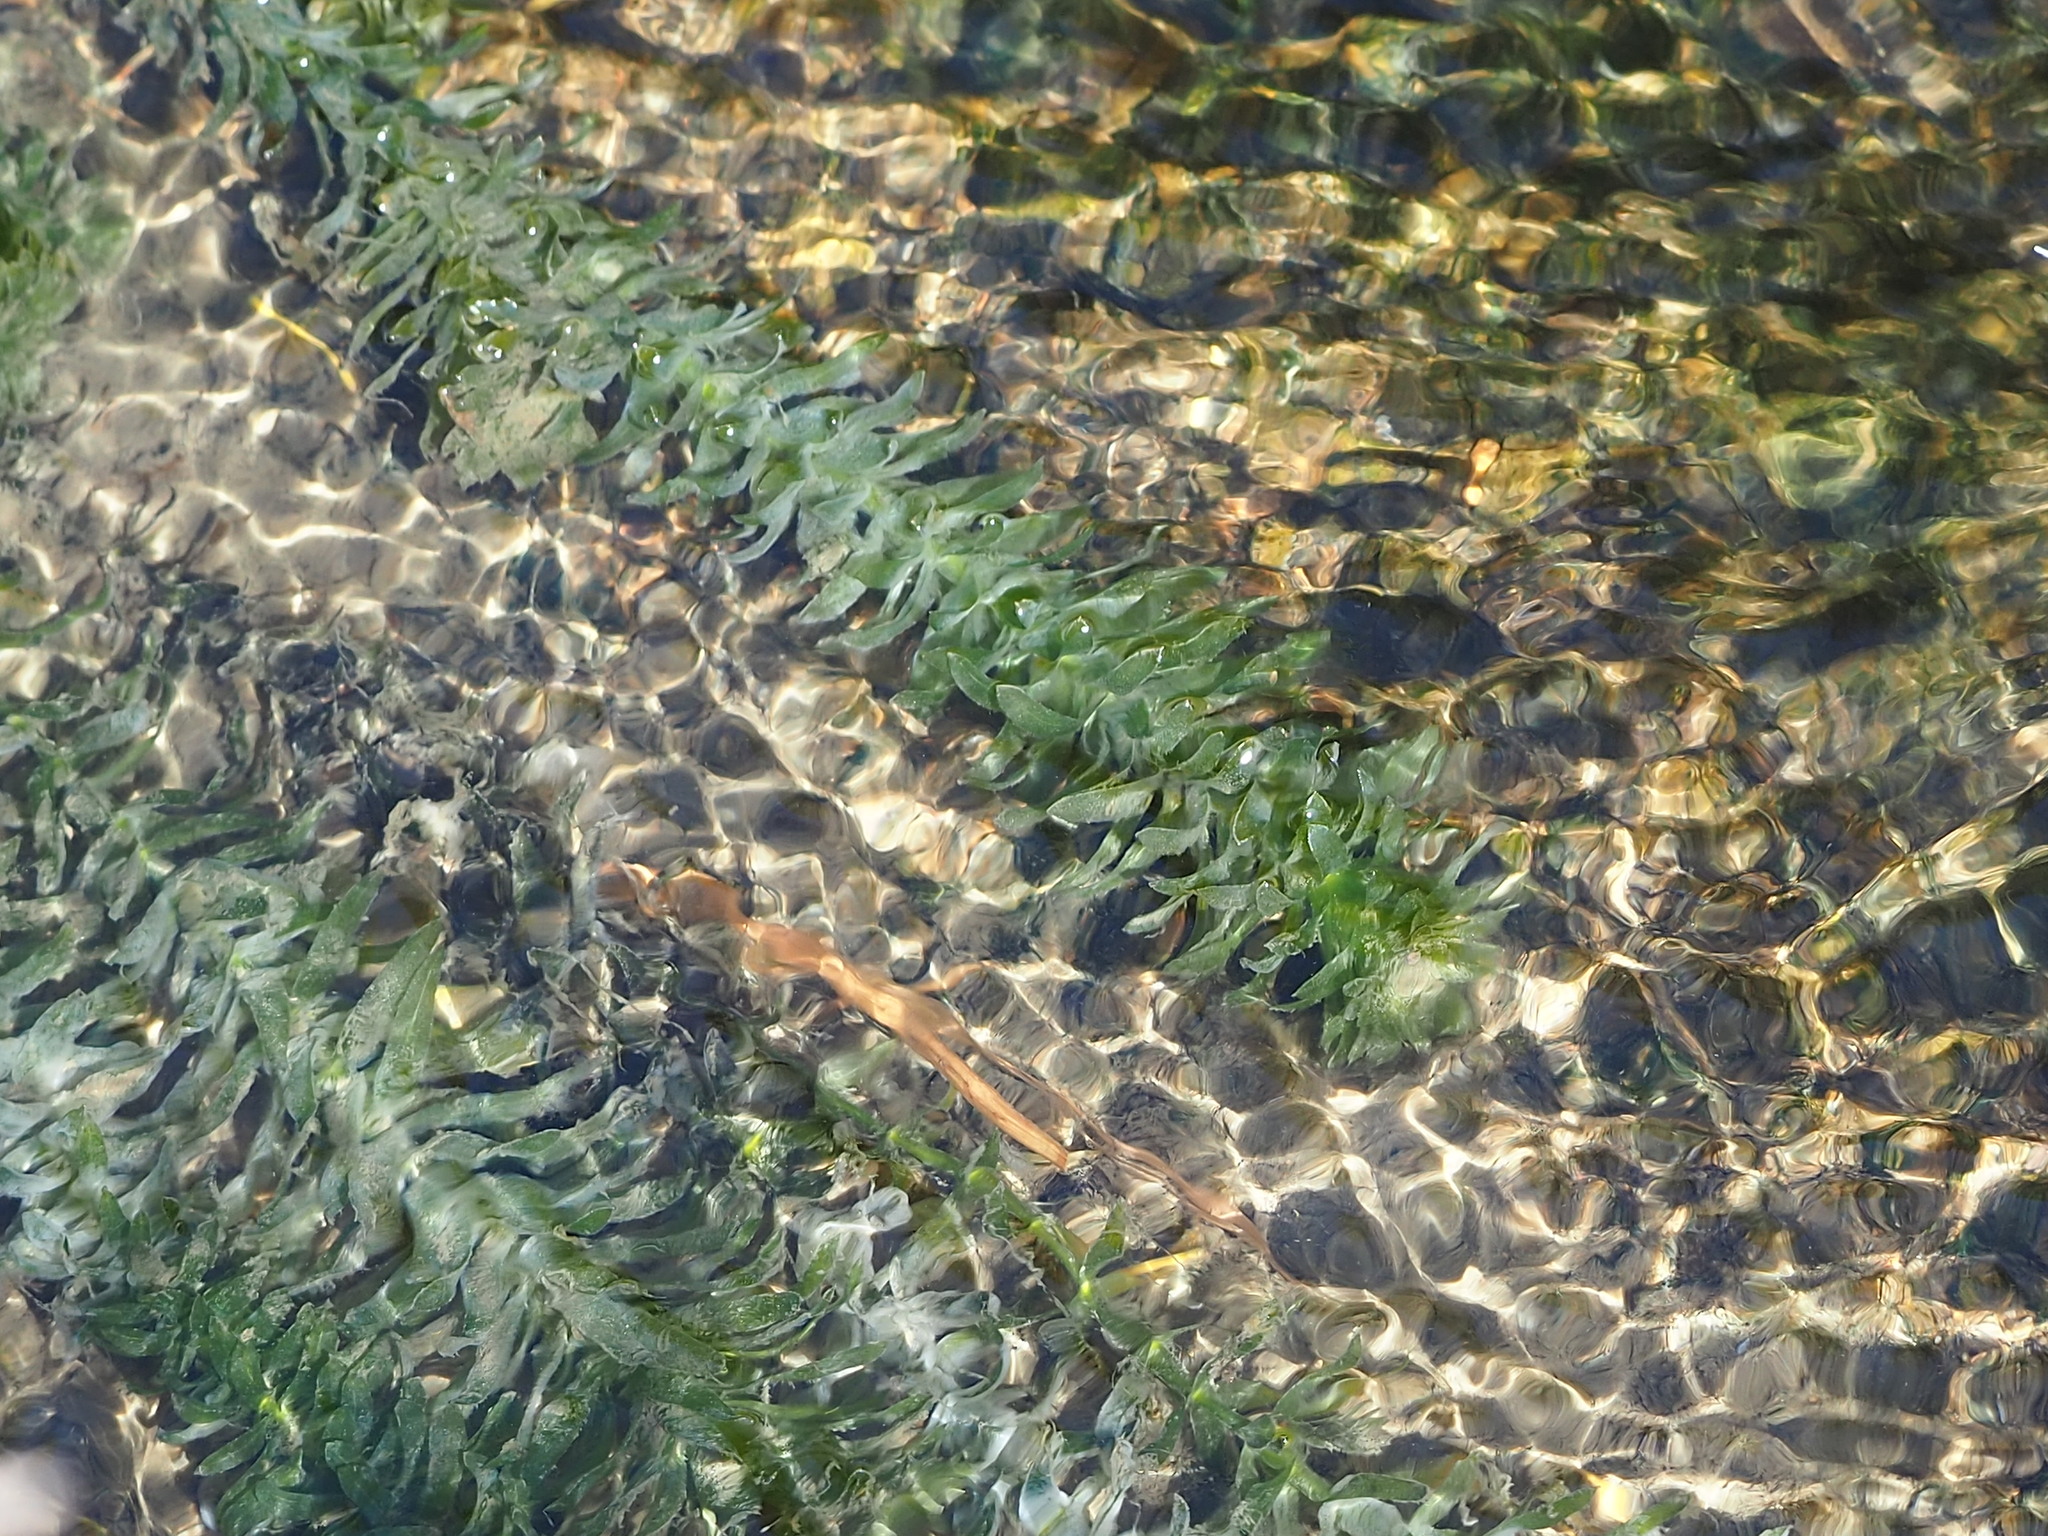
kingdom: Plantae
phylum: Tracheophyta
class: Liliopsida
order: Alismatales
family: Hydrocharitaceae
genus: Elodea
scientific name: Elodea densa
